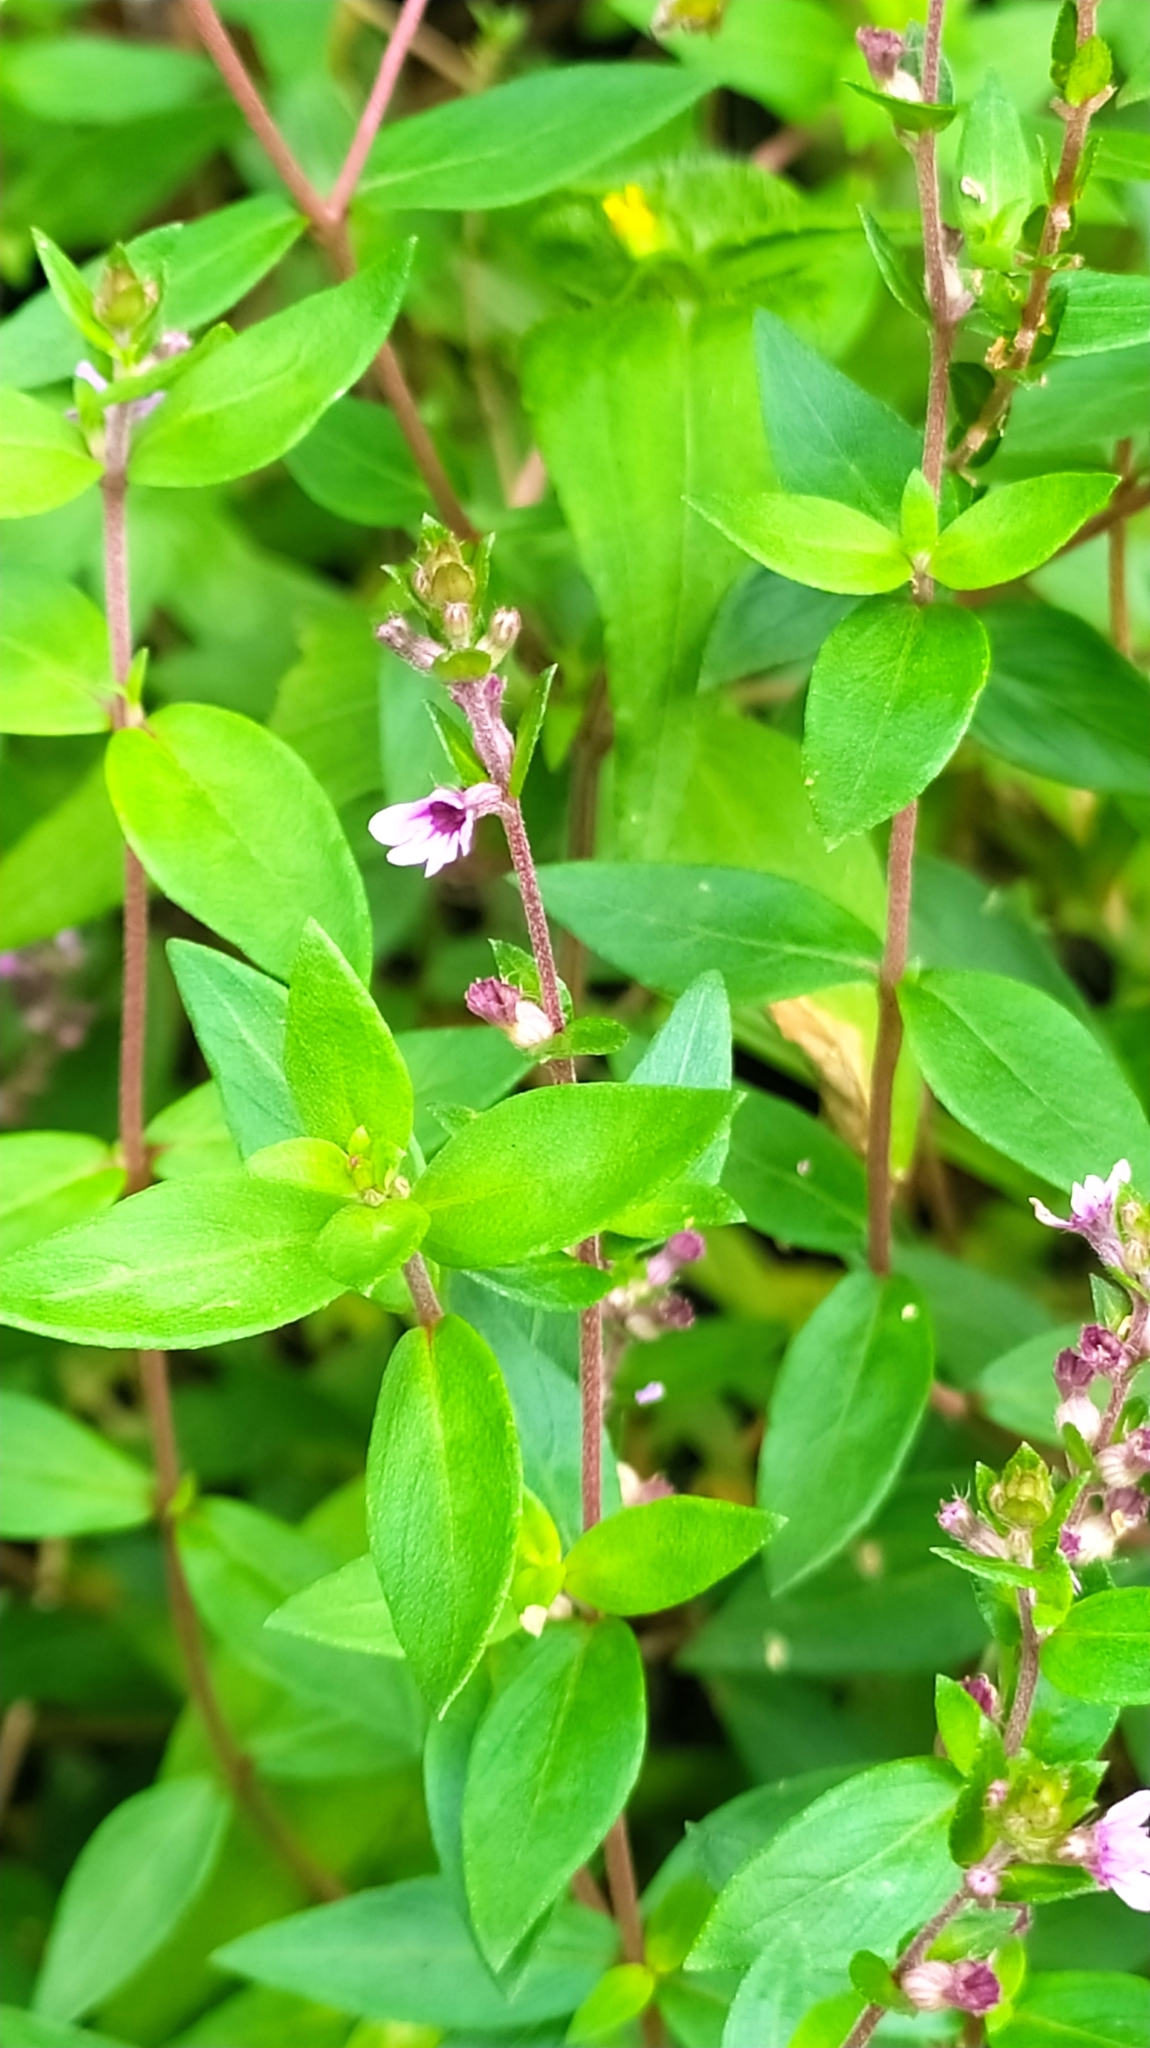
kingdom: Plantae
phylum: Tracheophyta
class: Magnoliopsida
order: Myrtales
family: Lythraceae
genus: Cuphea
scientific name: Cuphea blackii
